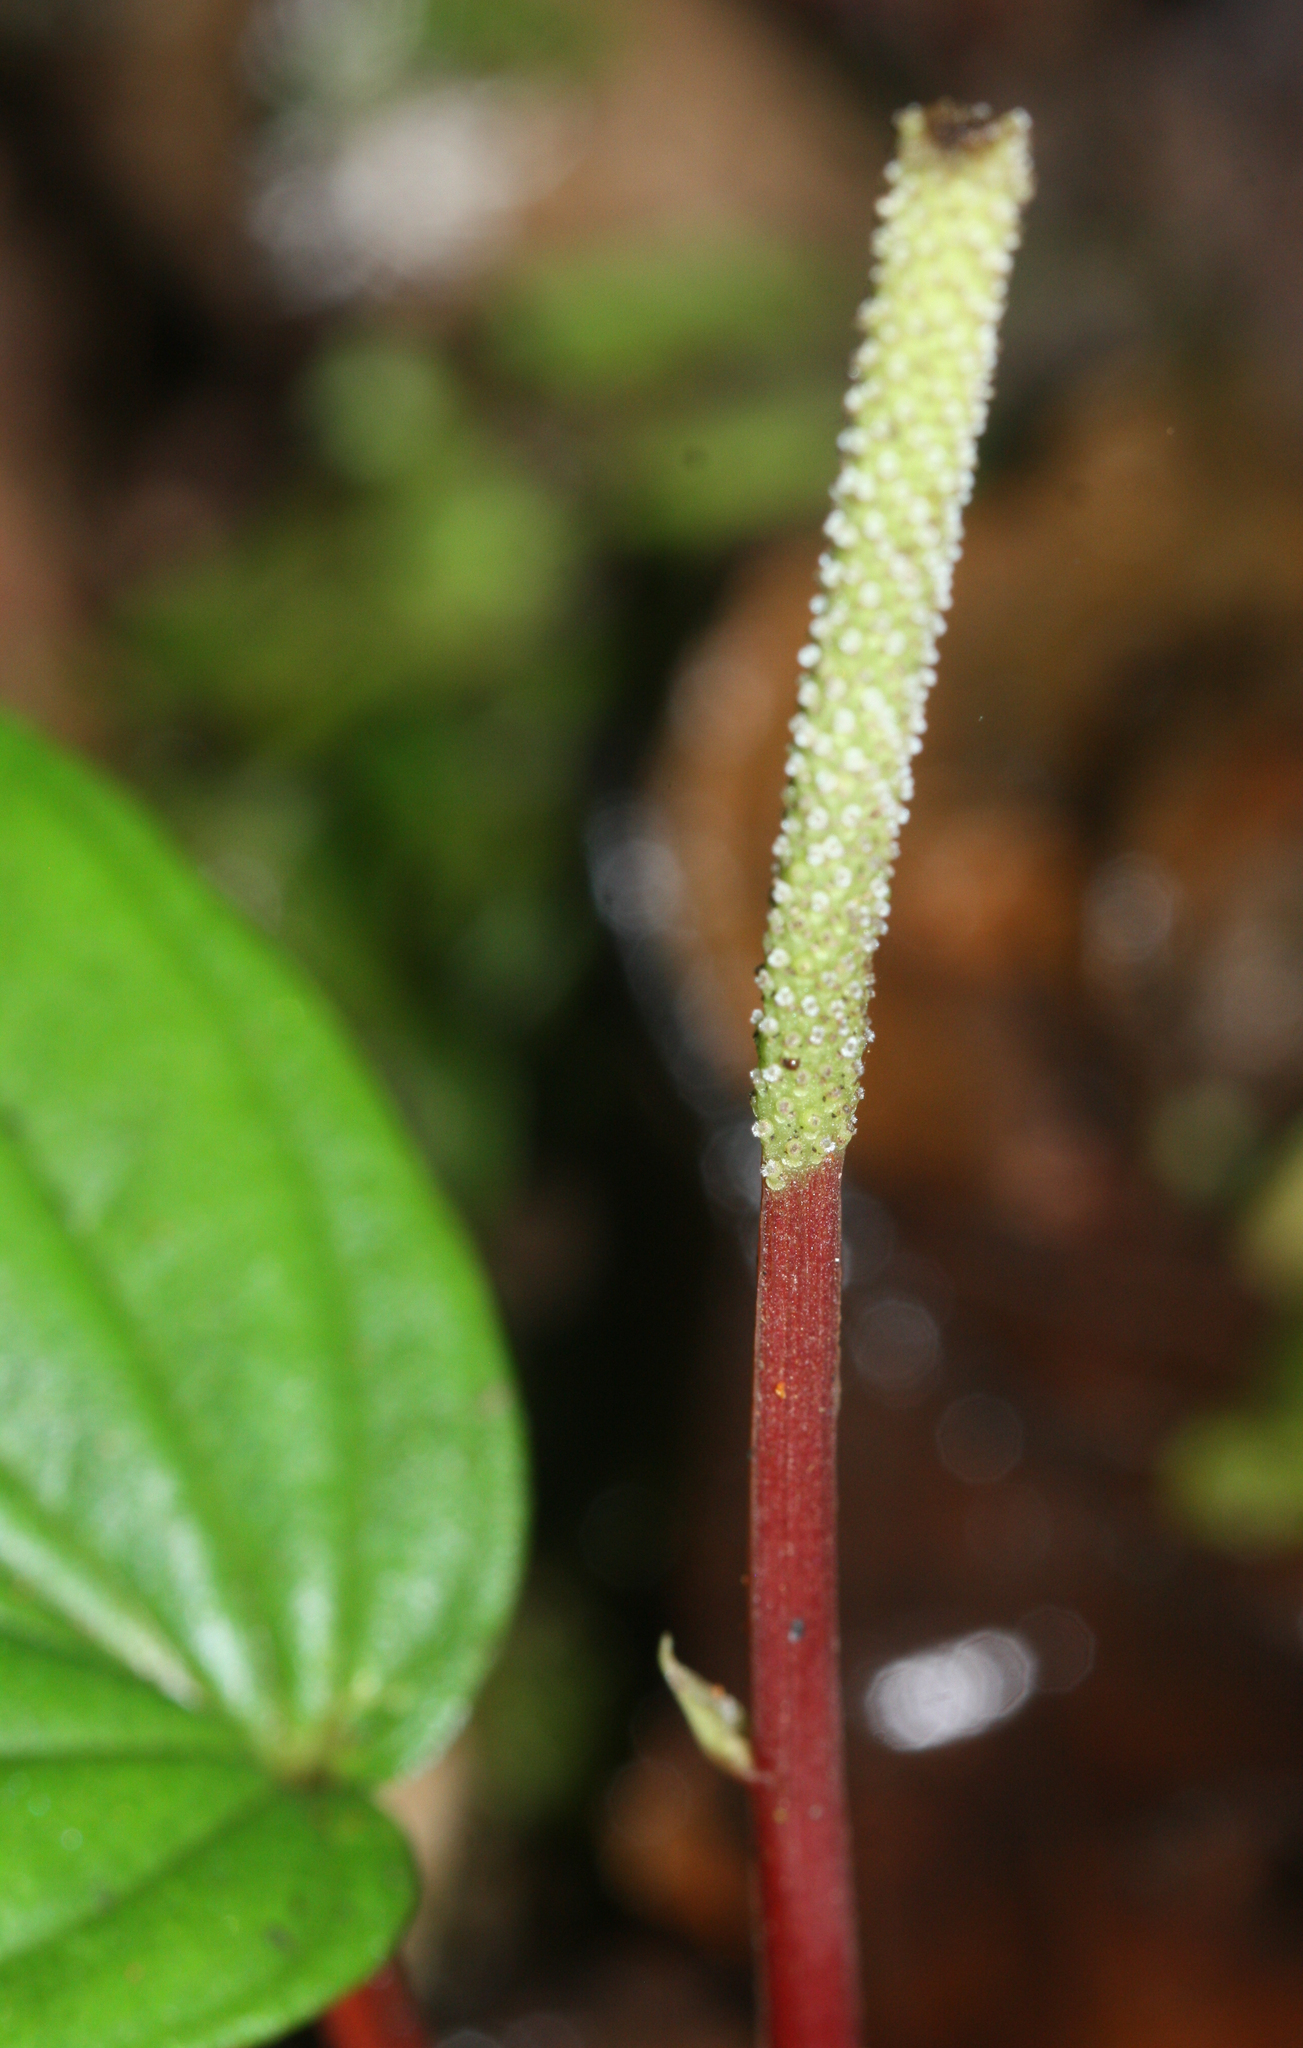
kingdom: Plantae
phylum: Tracheophyta
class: Magnoliopsida
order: Piperales
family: Piperaceae
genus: Peperomia
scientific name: Peperomia ecuadorensis
